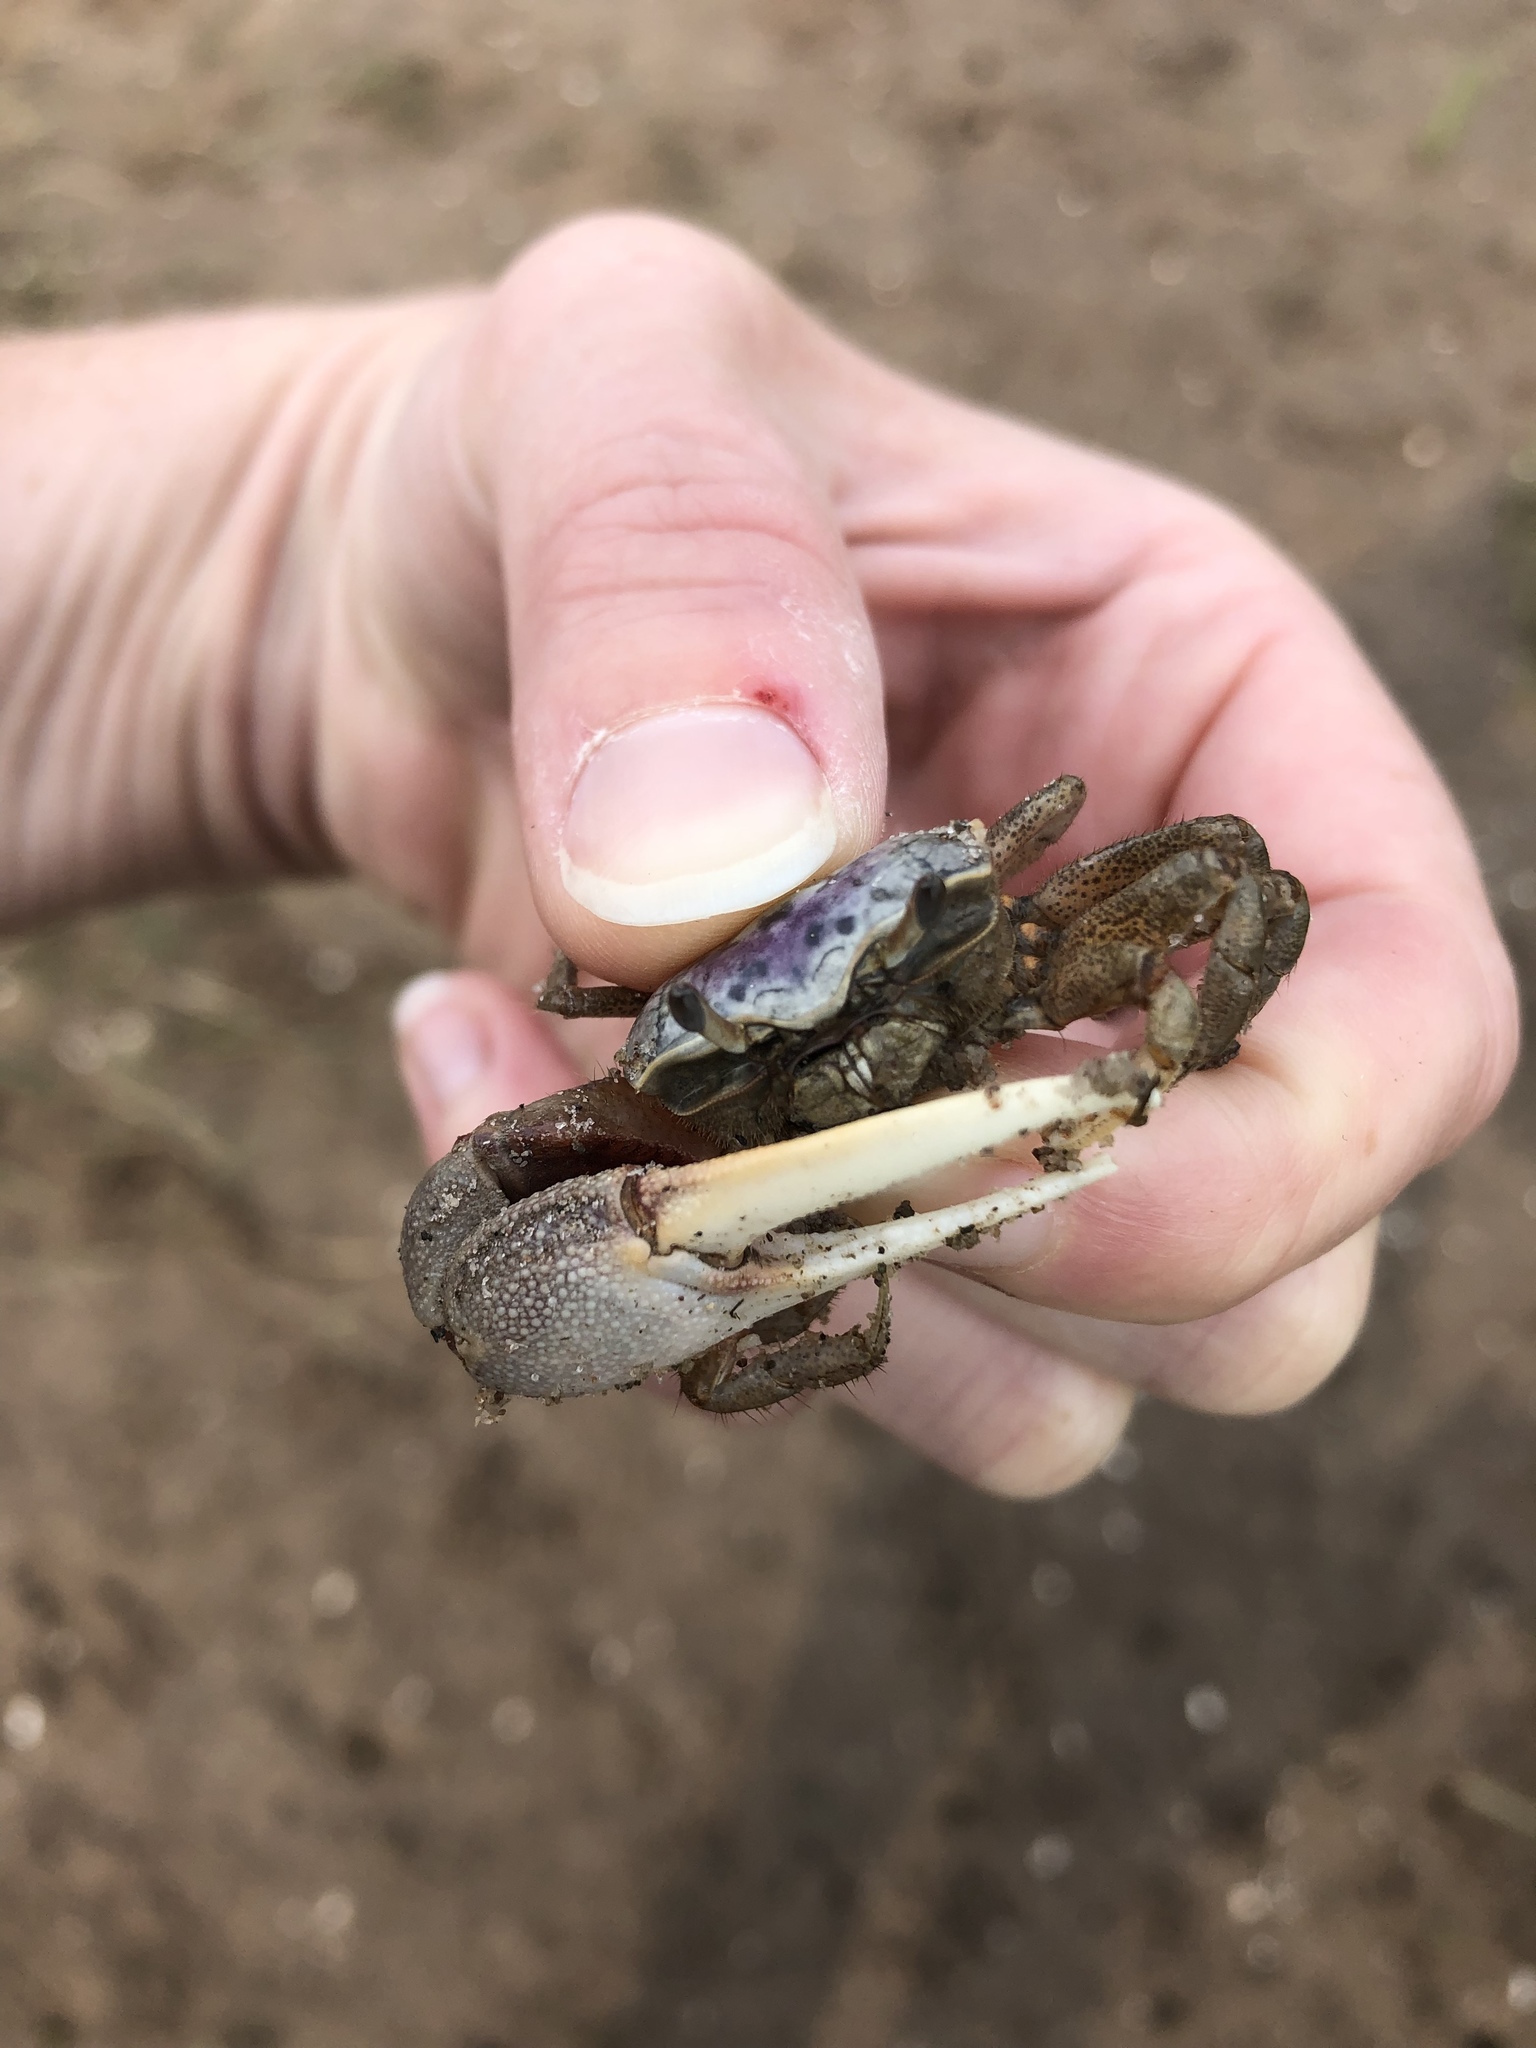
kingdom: Animalia
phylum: Arthropoda
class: Malacostraca
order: Decapoda
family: Ocypodidae
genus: Leptuca
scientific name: Leptuca pugilator
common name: Atlantic sand fiddler crab
